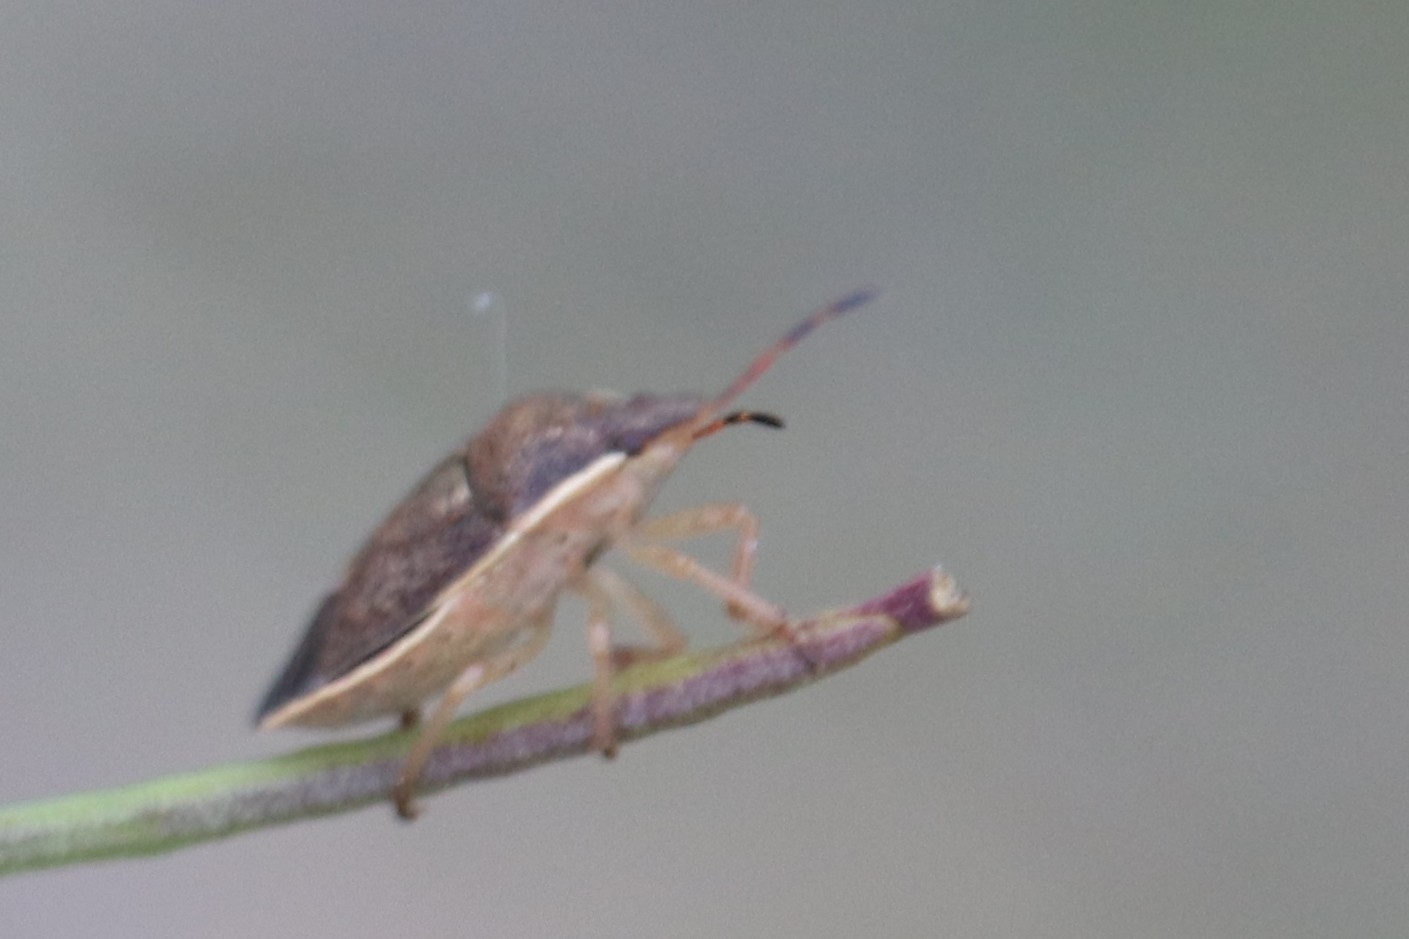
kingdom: Animalia
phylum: Arthropoda
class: Insecta
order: Hemiptera
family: Pentatomidae
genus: Holcostethus
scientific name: Holcostethus limbolarius
